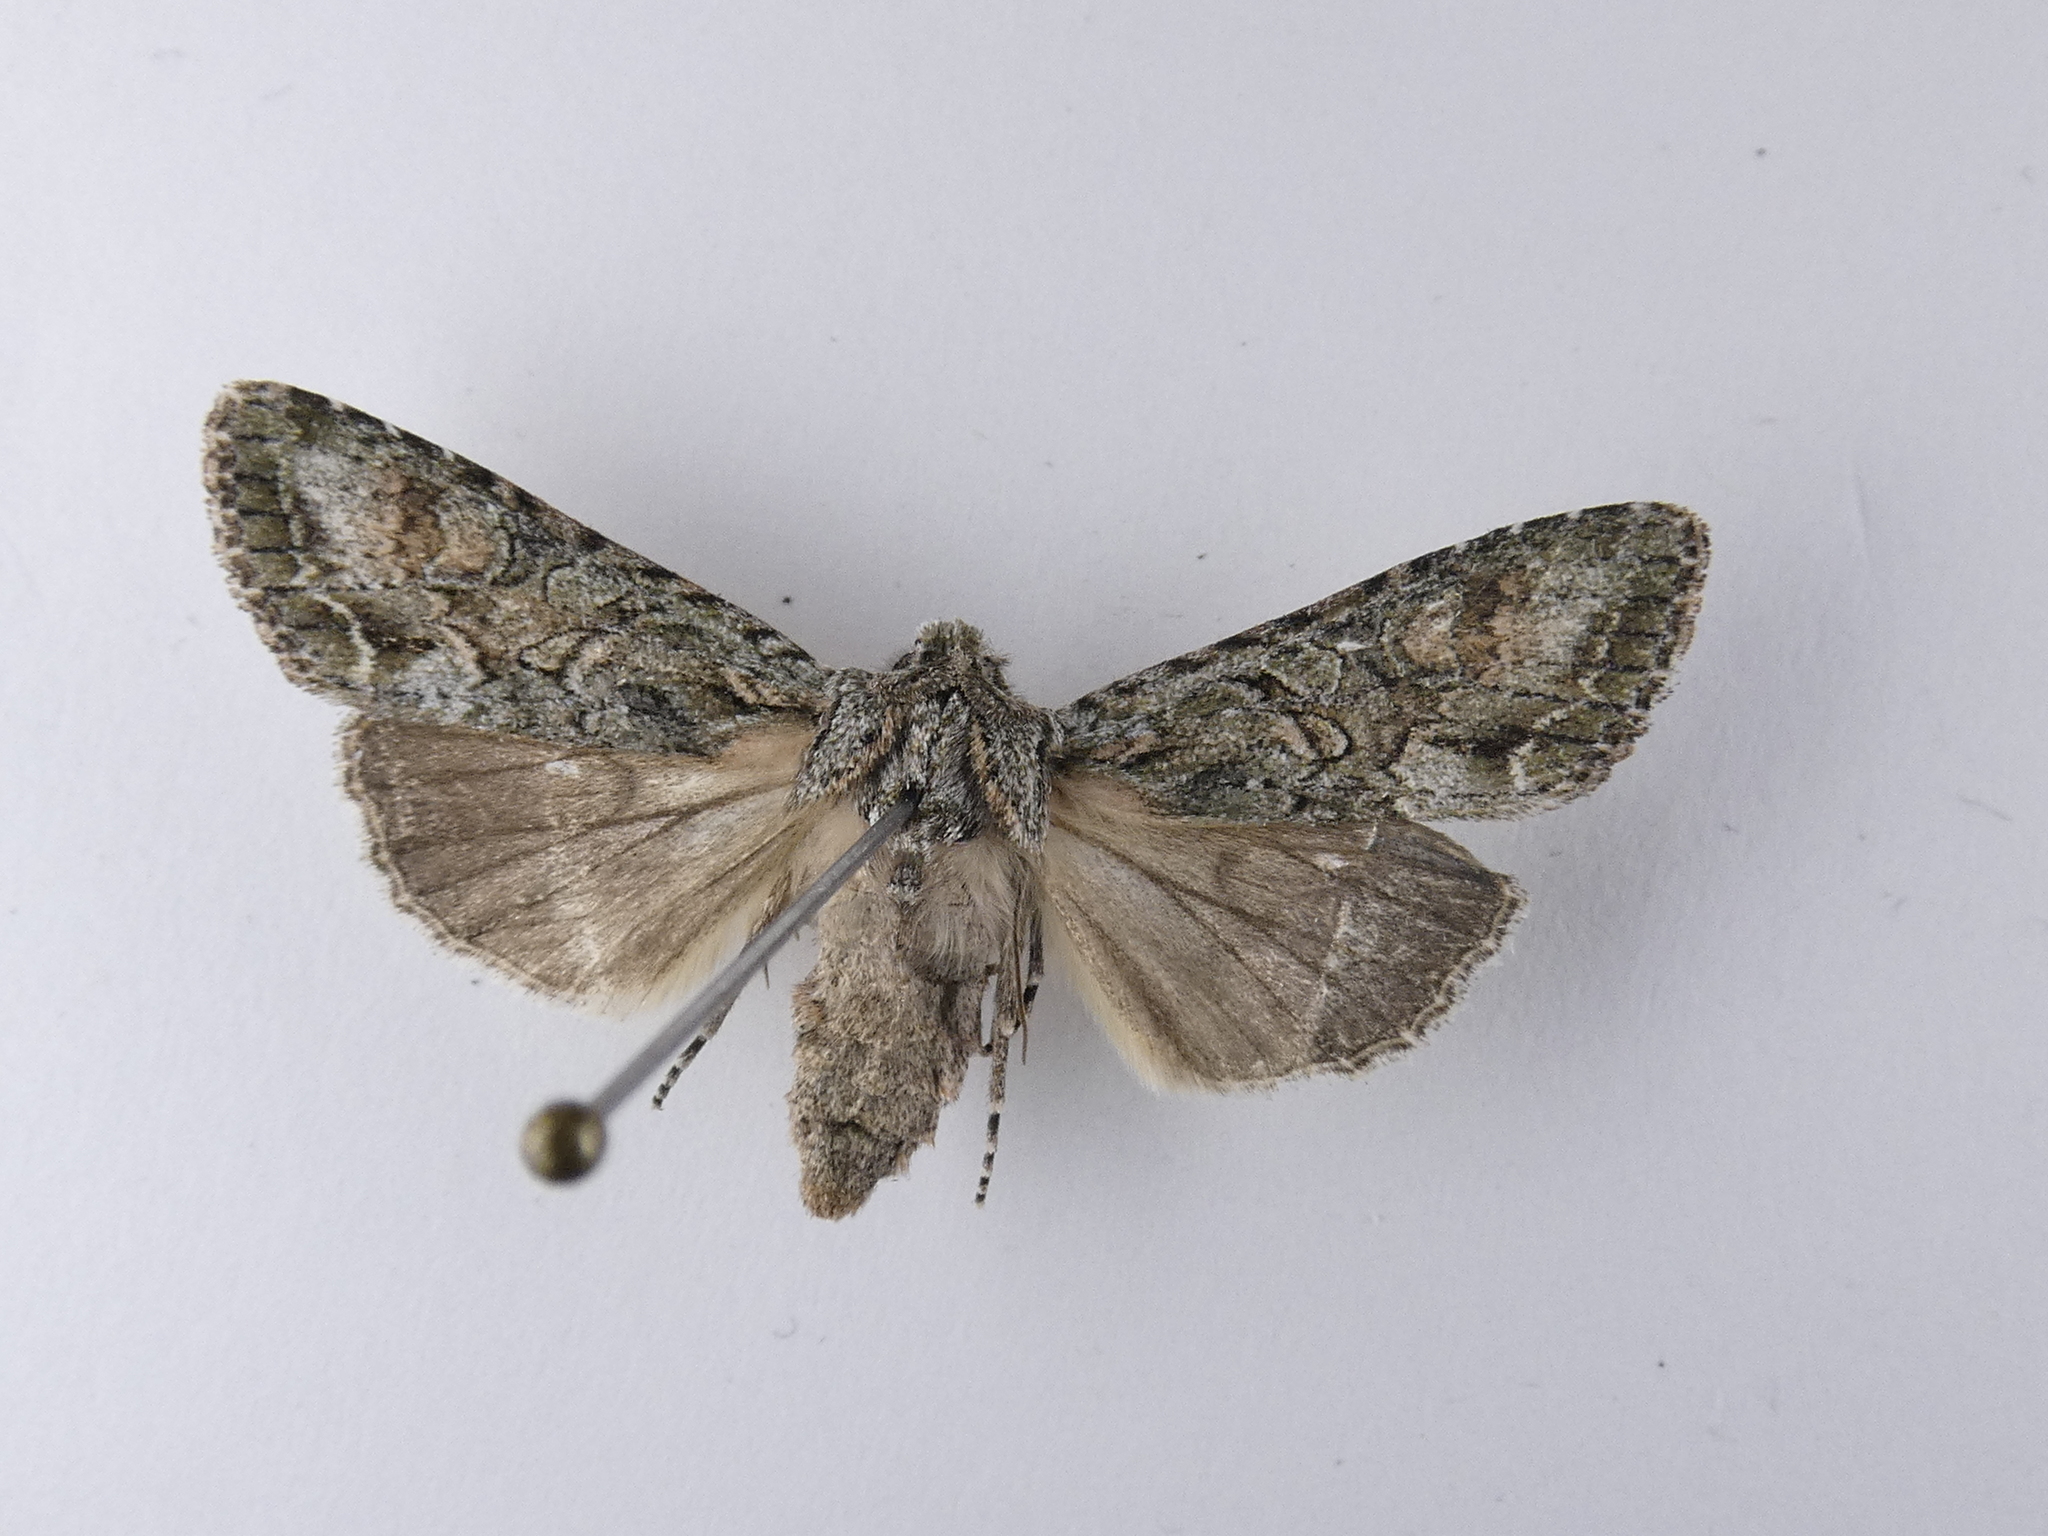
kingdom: Animalia
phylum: Arthropoda
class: Insecta
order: Lepidoptera
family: Noctuidae
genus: Ichneutica
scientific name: Ichneutica mutans
